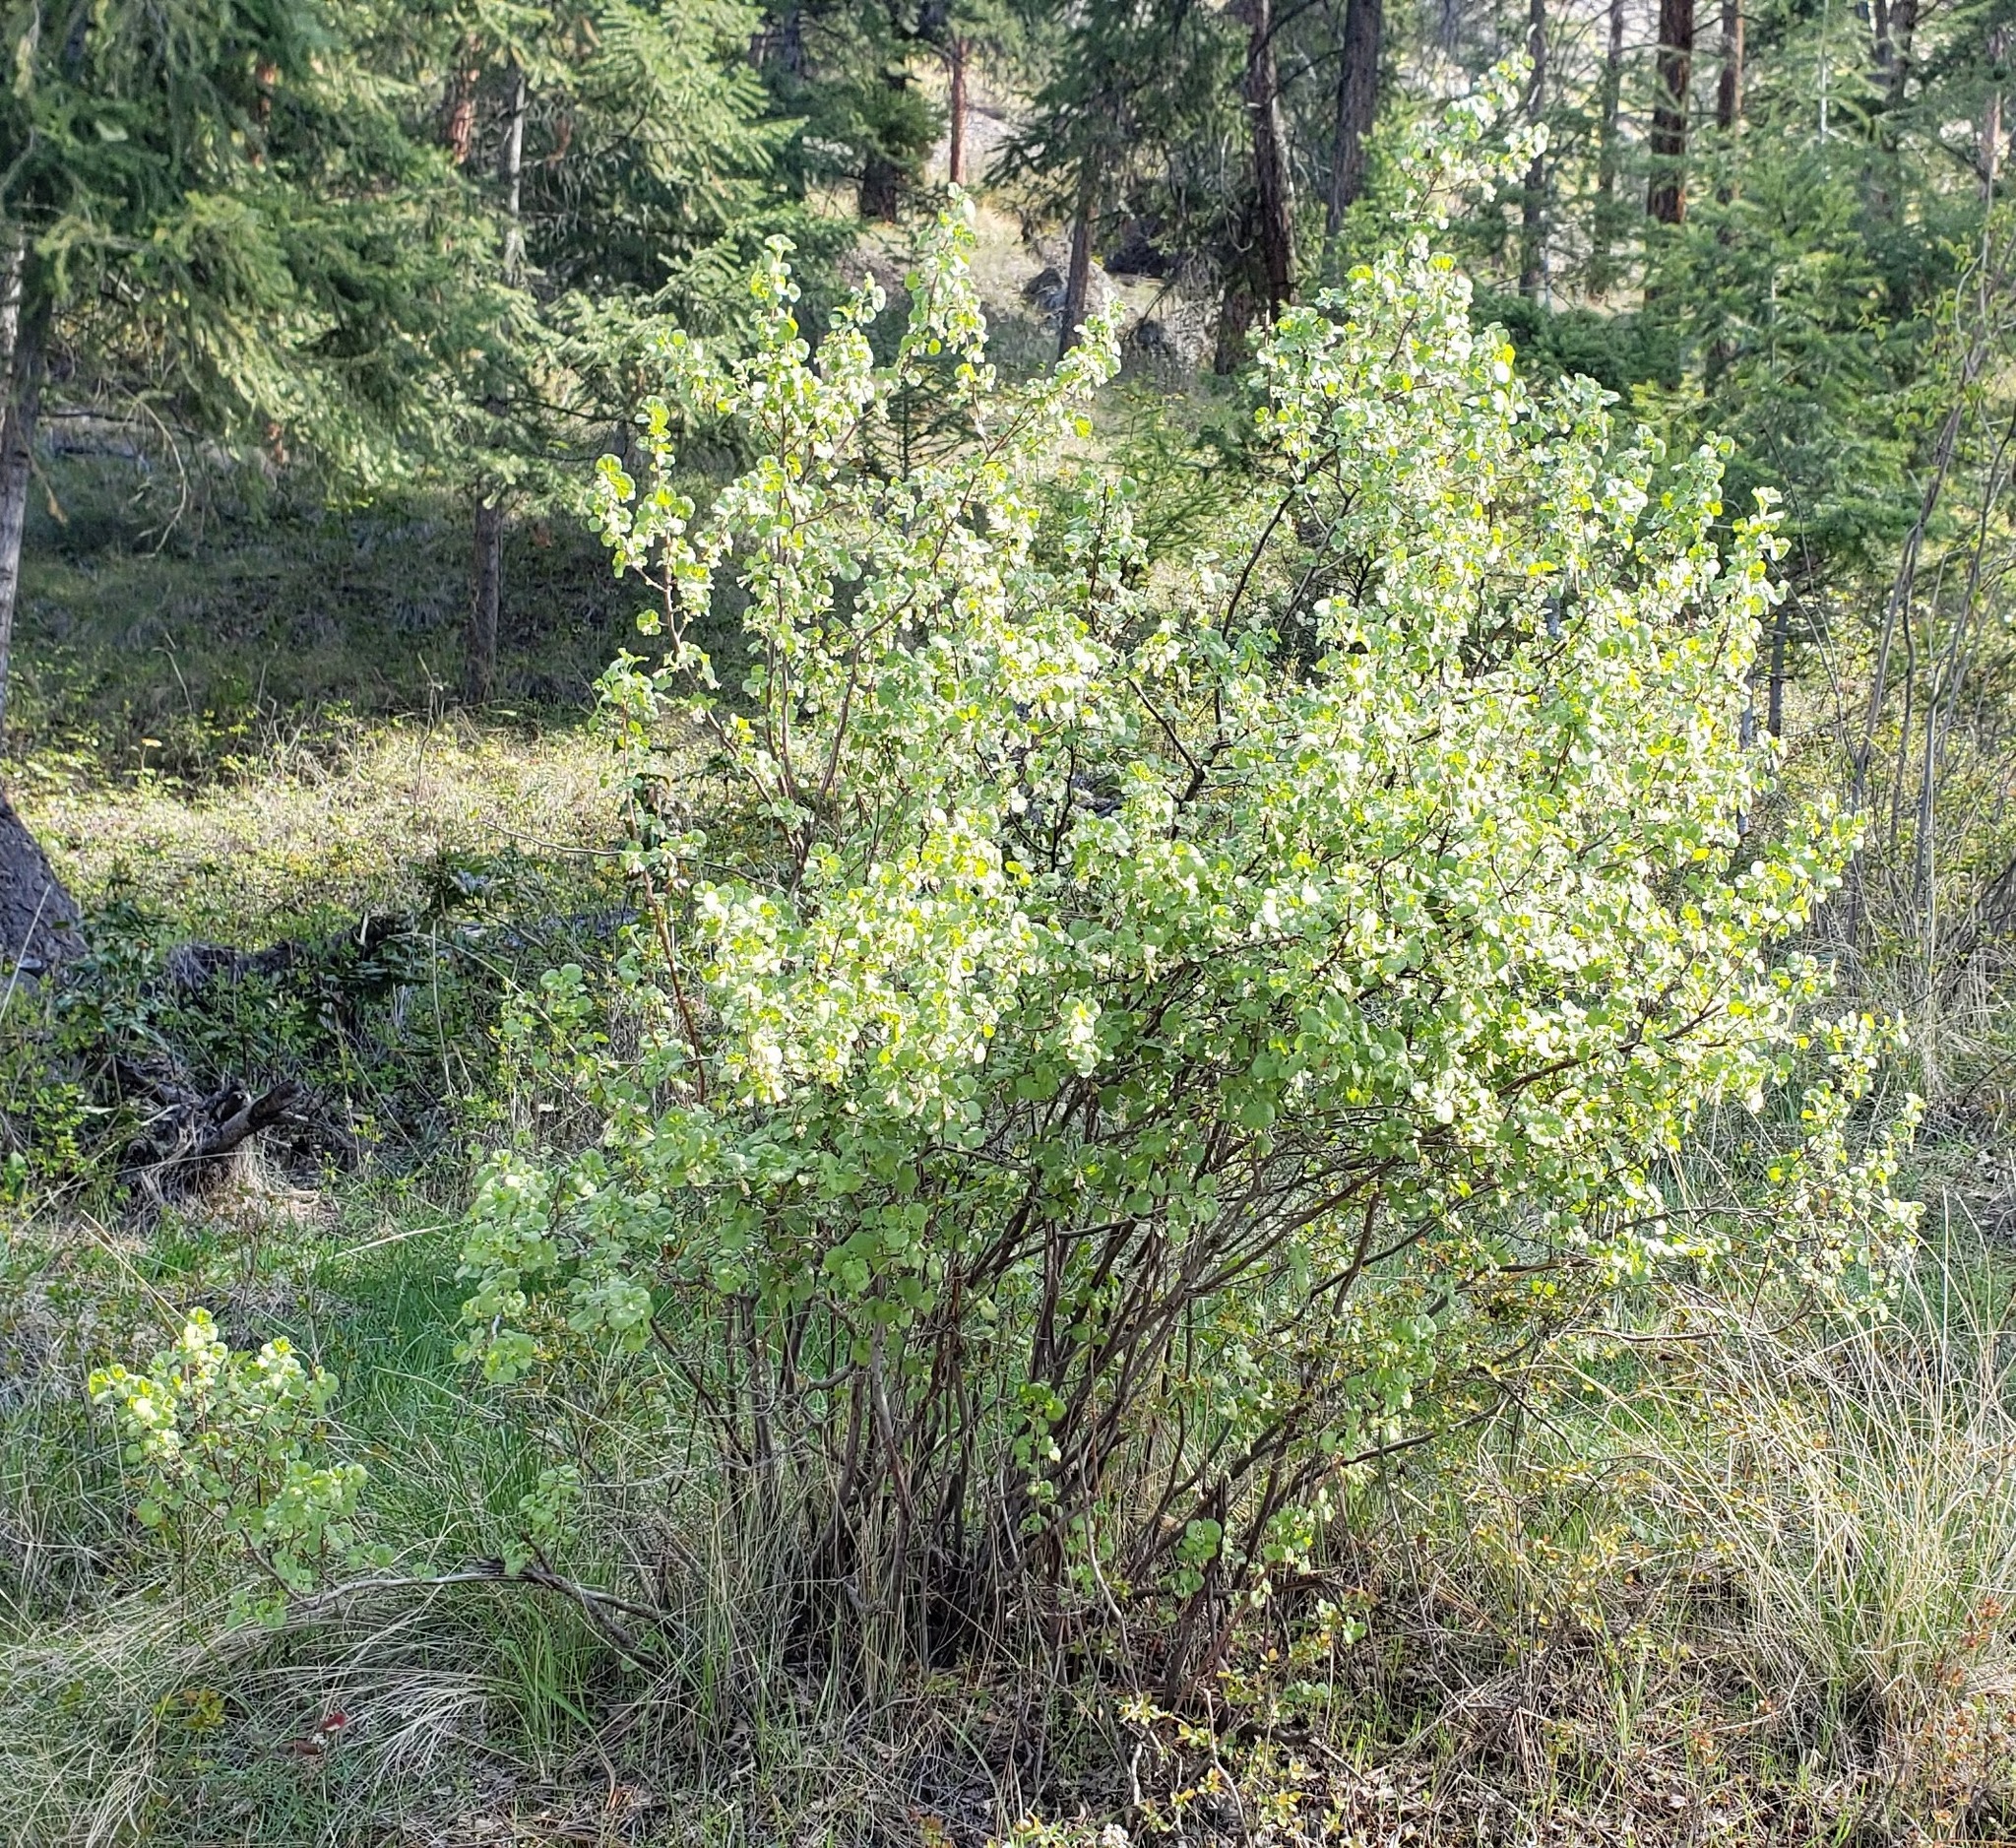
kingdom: Plantae
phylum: Tracheophyta
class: Magnoliopsida
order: Saxifragales
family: Grossulariaceae
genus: Ribes
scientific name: Ribes cereum
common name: Wax currant
